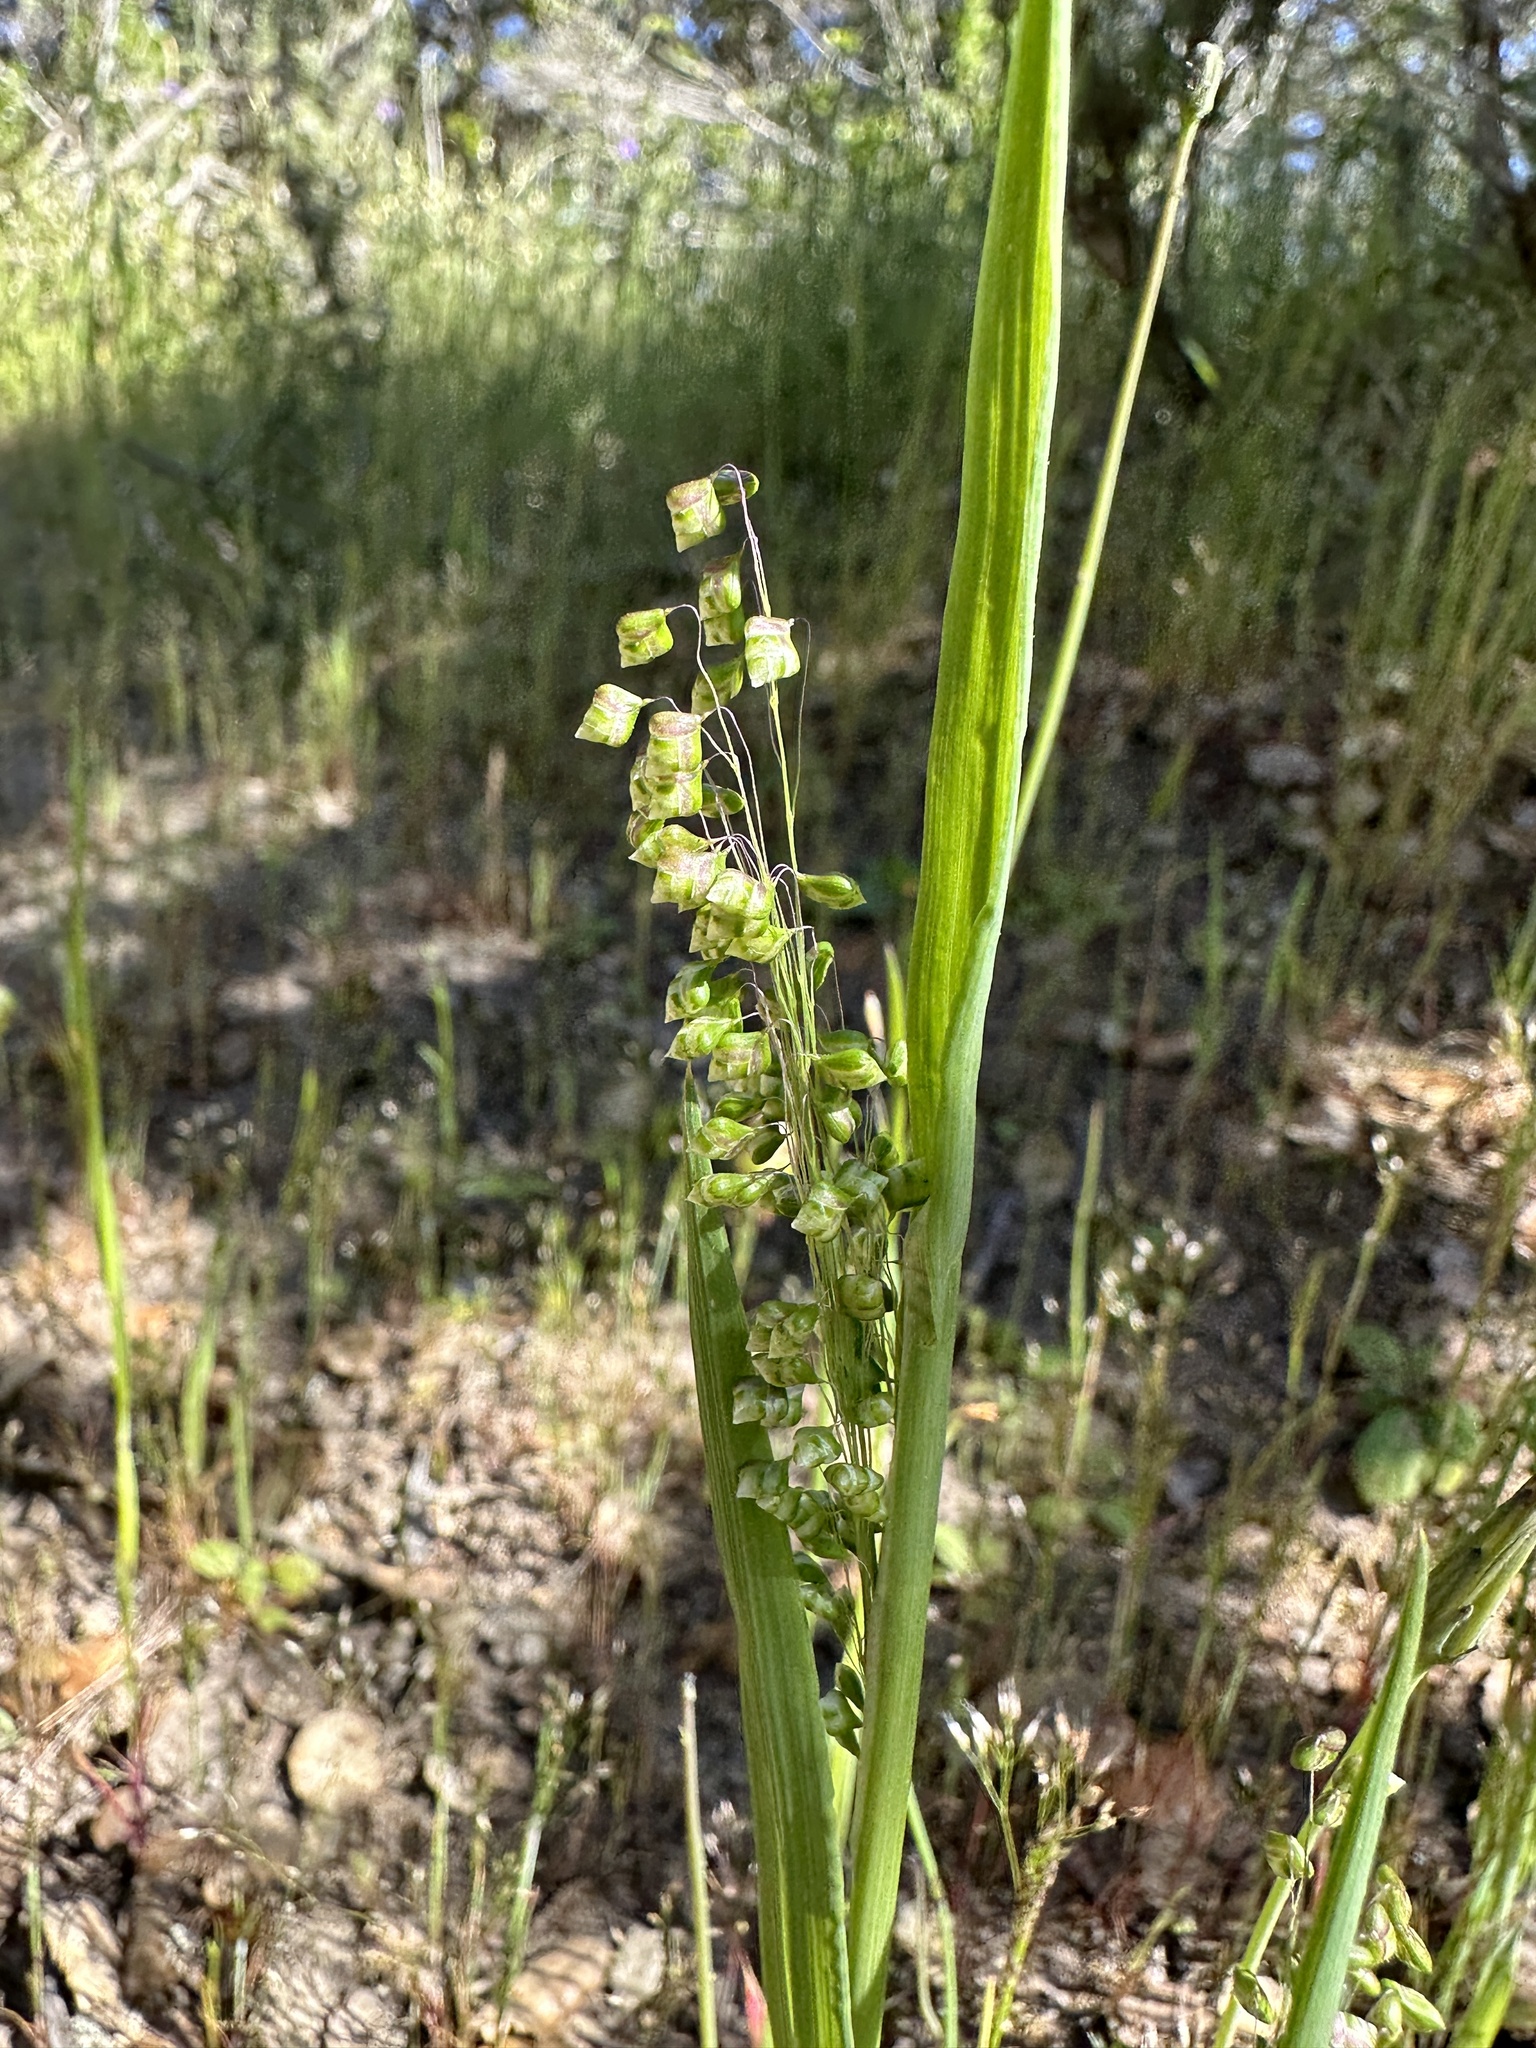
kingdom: Plantae
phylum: Tracheophyta
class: Liliopsida
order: Poales
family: Poaceae
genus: Briza
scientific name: Briza minor
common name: Lesser quaking-grass
